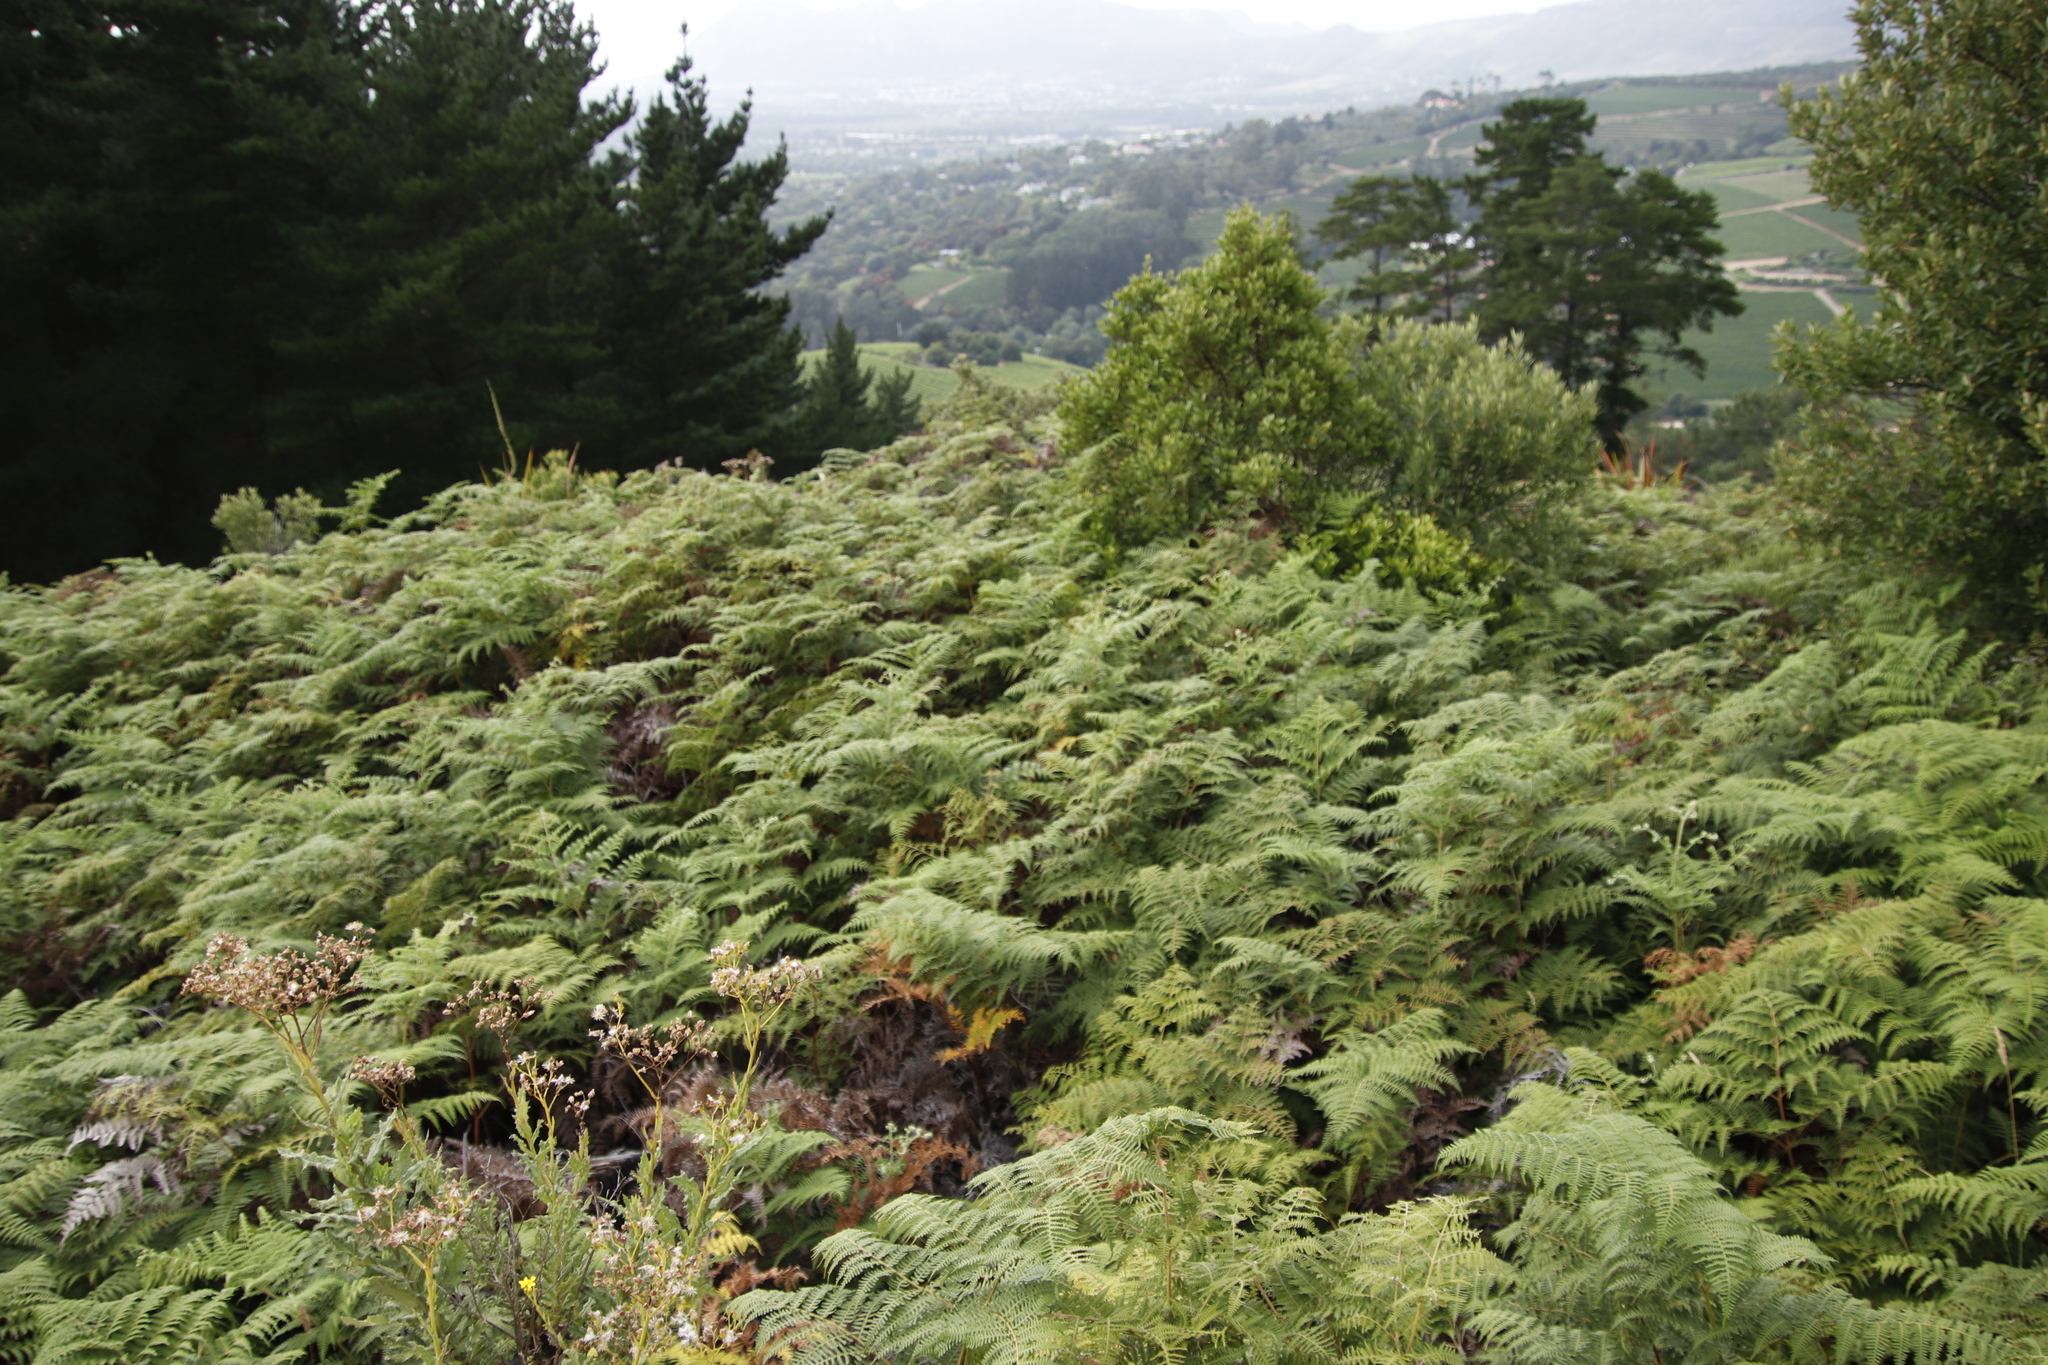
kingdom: Plantae
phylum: Tracheophyta
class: Polypodiopsida
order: Polypodiales
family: Dennstaedtiaceae
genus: Pteridium
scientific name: Pteridium aquilinum
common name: Bracken
